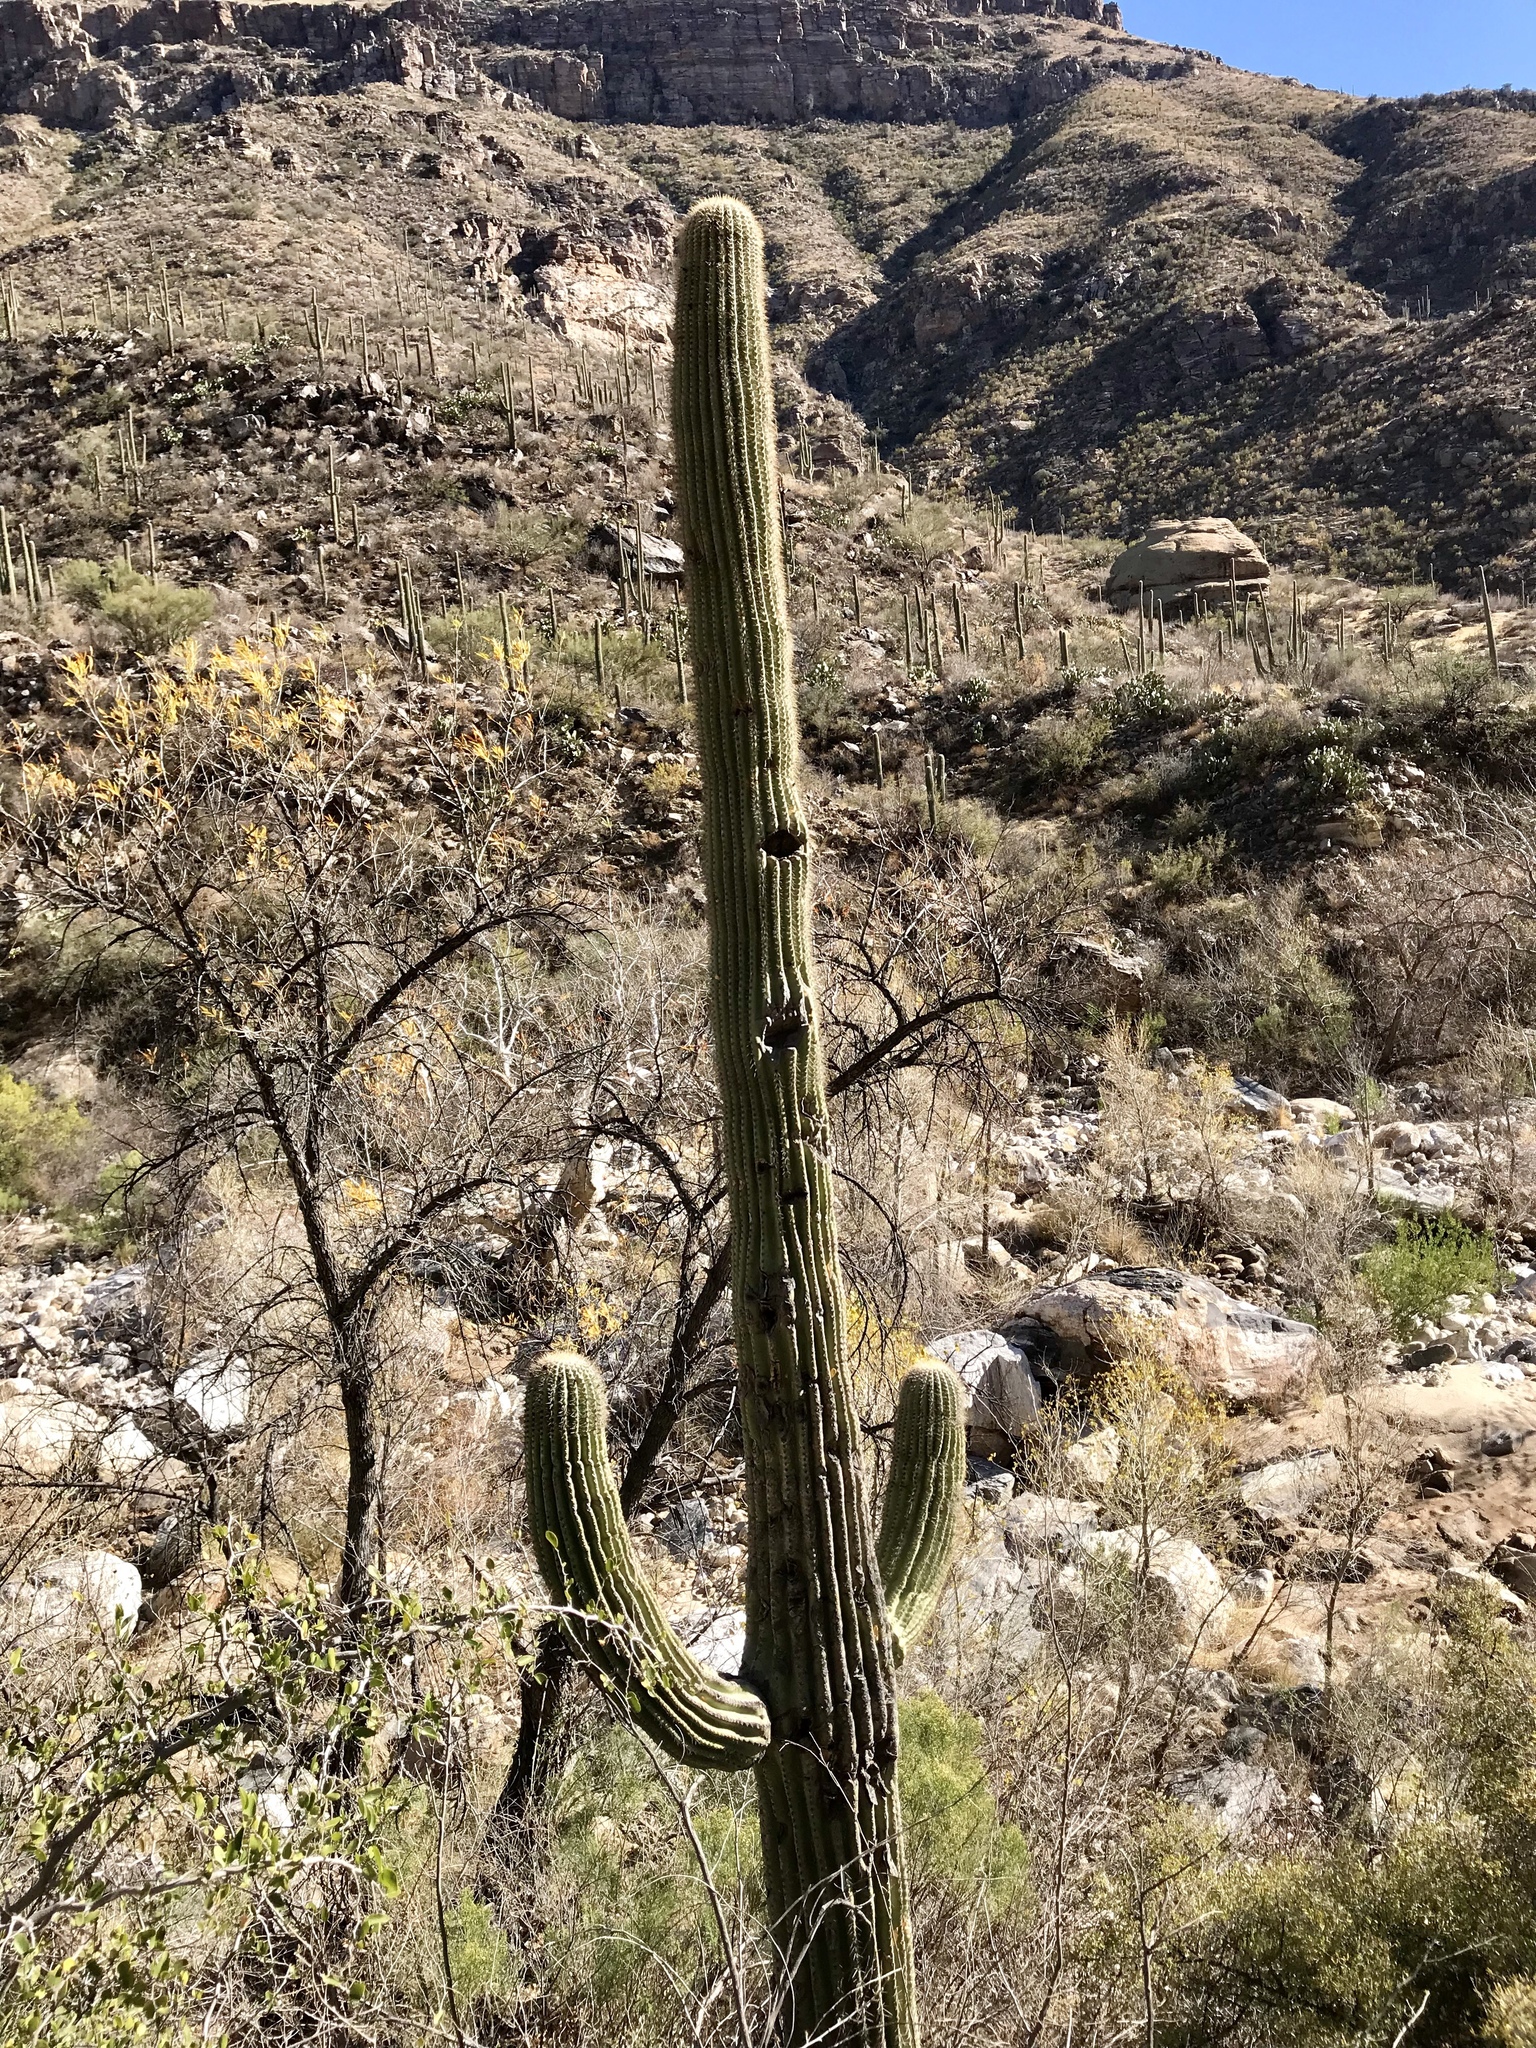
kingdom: Plantae
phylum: Tracheophyta
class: Magnoliopsida
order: Caryophyllales
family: Cactaceae
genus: Carnegiea
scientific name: Carnegiea gigantea
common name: Saguaro
